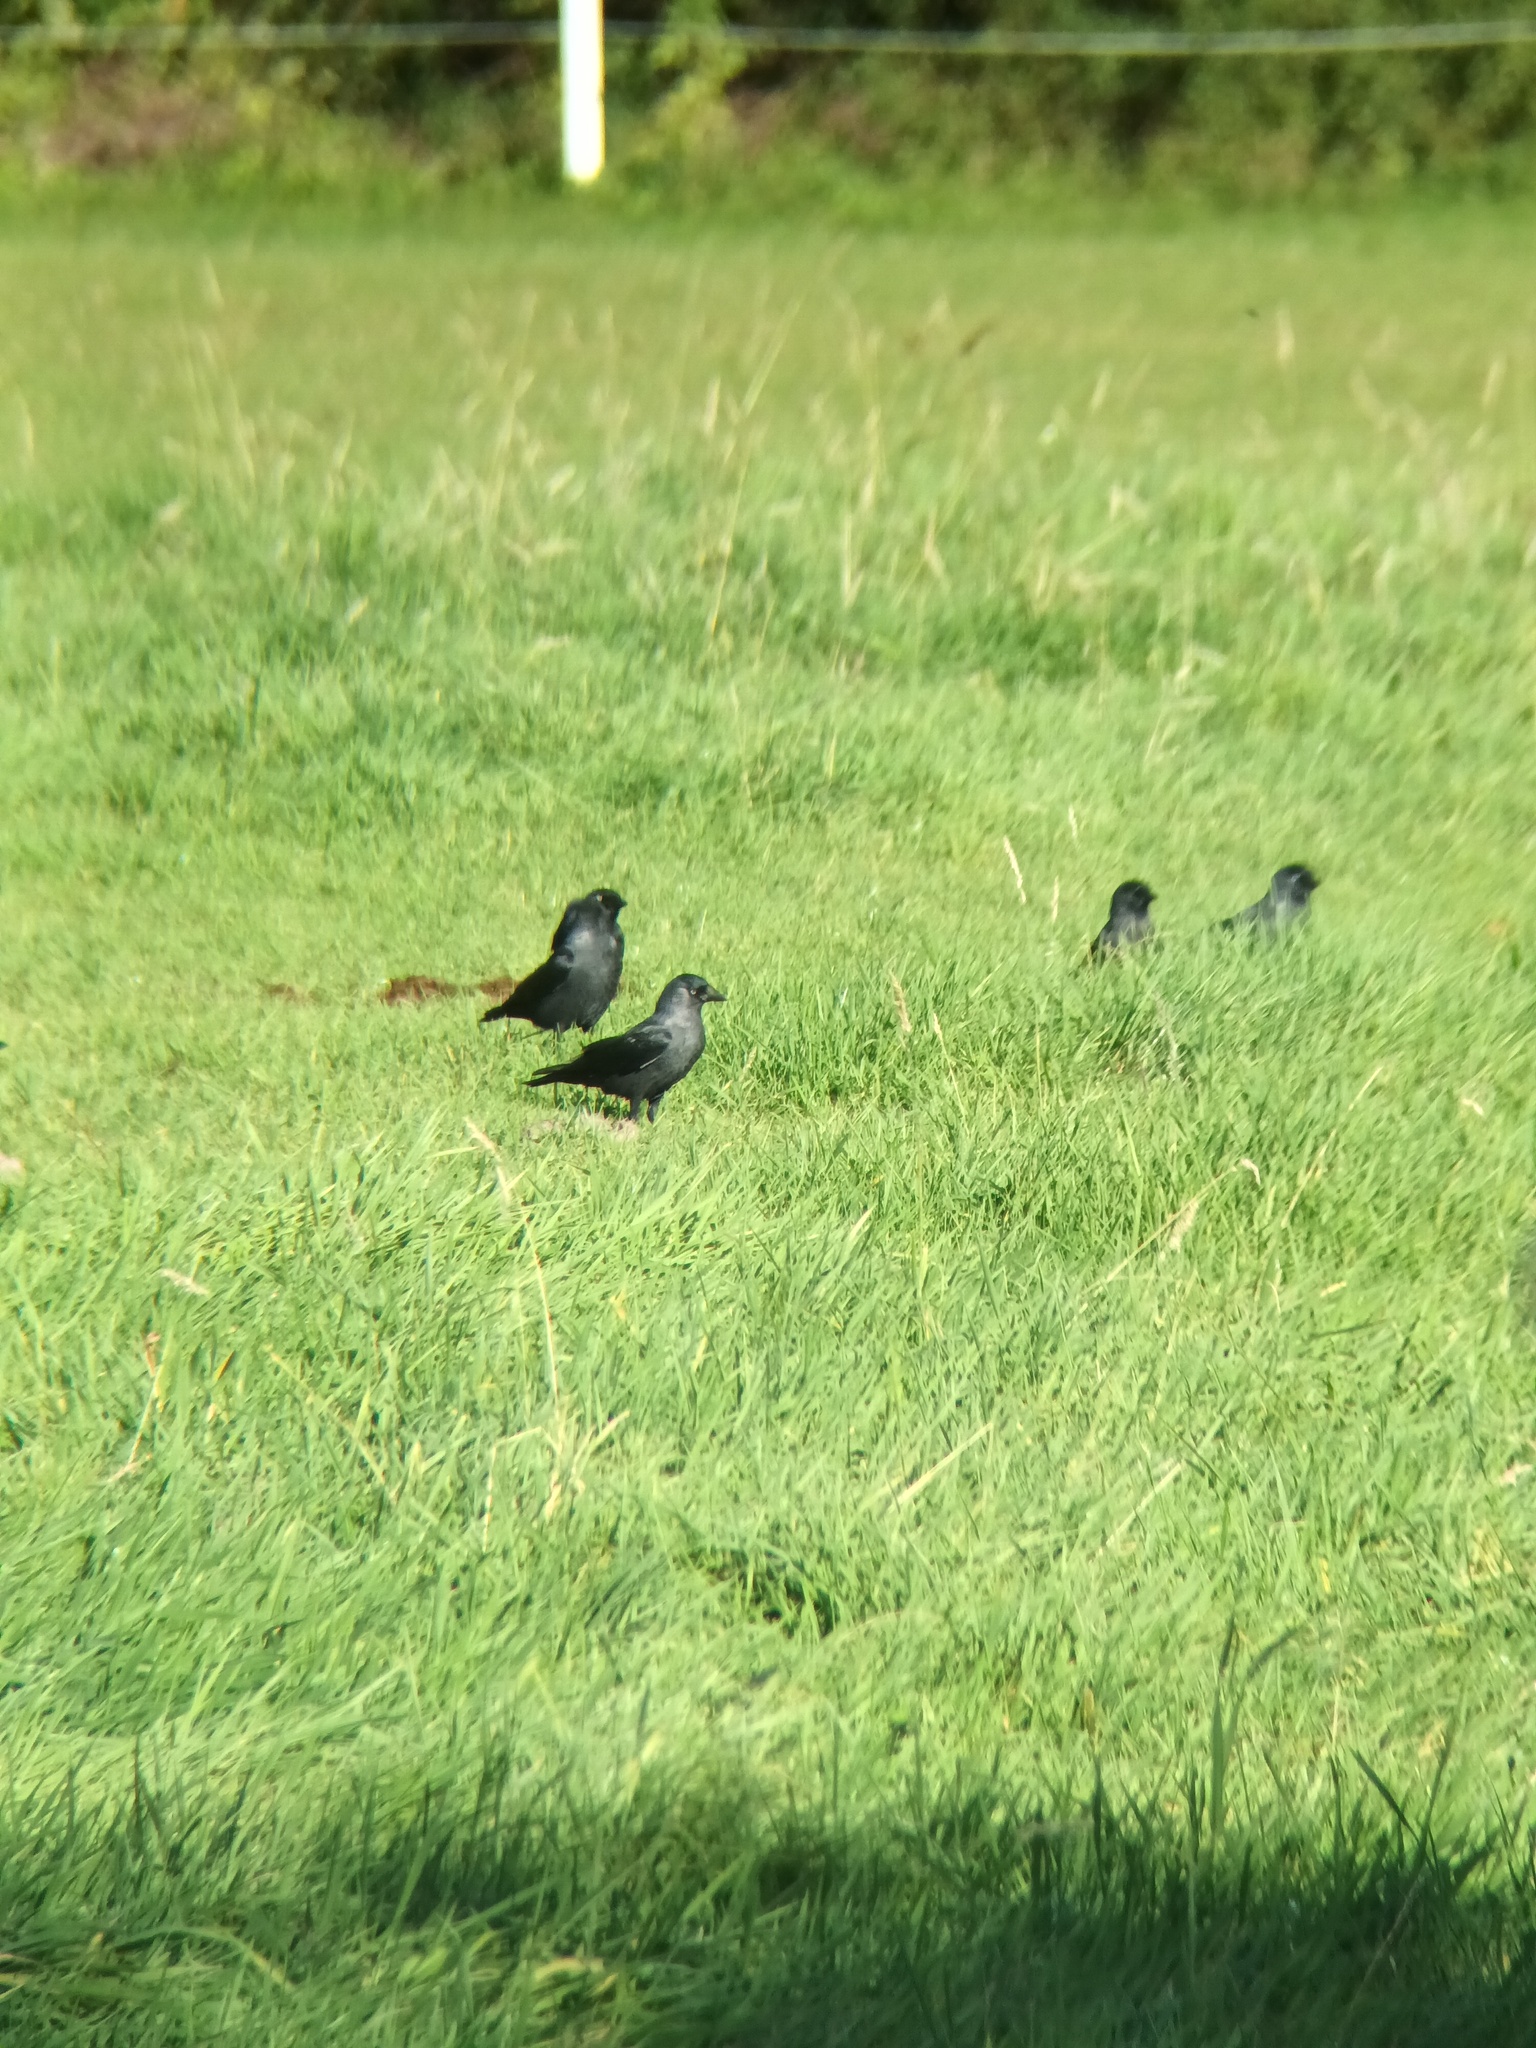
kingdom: Animalia
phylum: Chordata
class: Aves
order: Passeriformes
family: Corvidae
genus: Coloeus
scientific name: Coloeus monedula
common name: Western jackdaw
